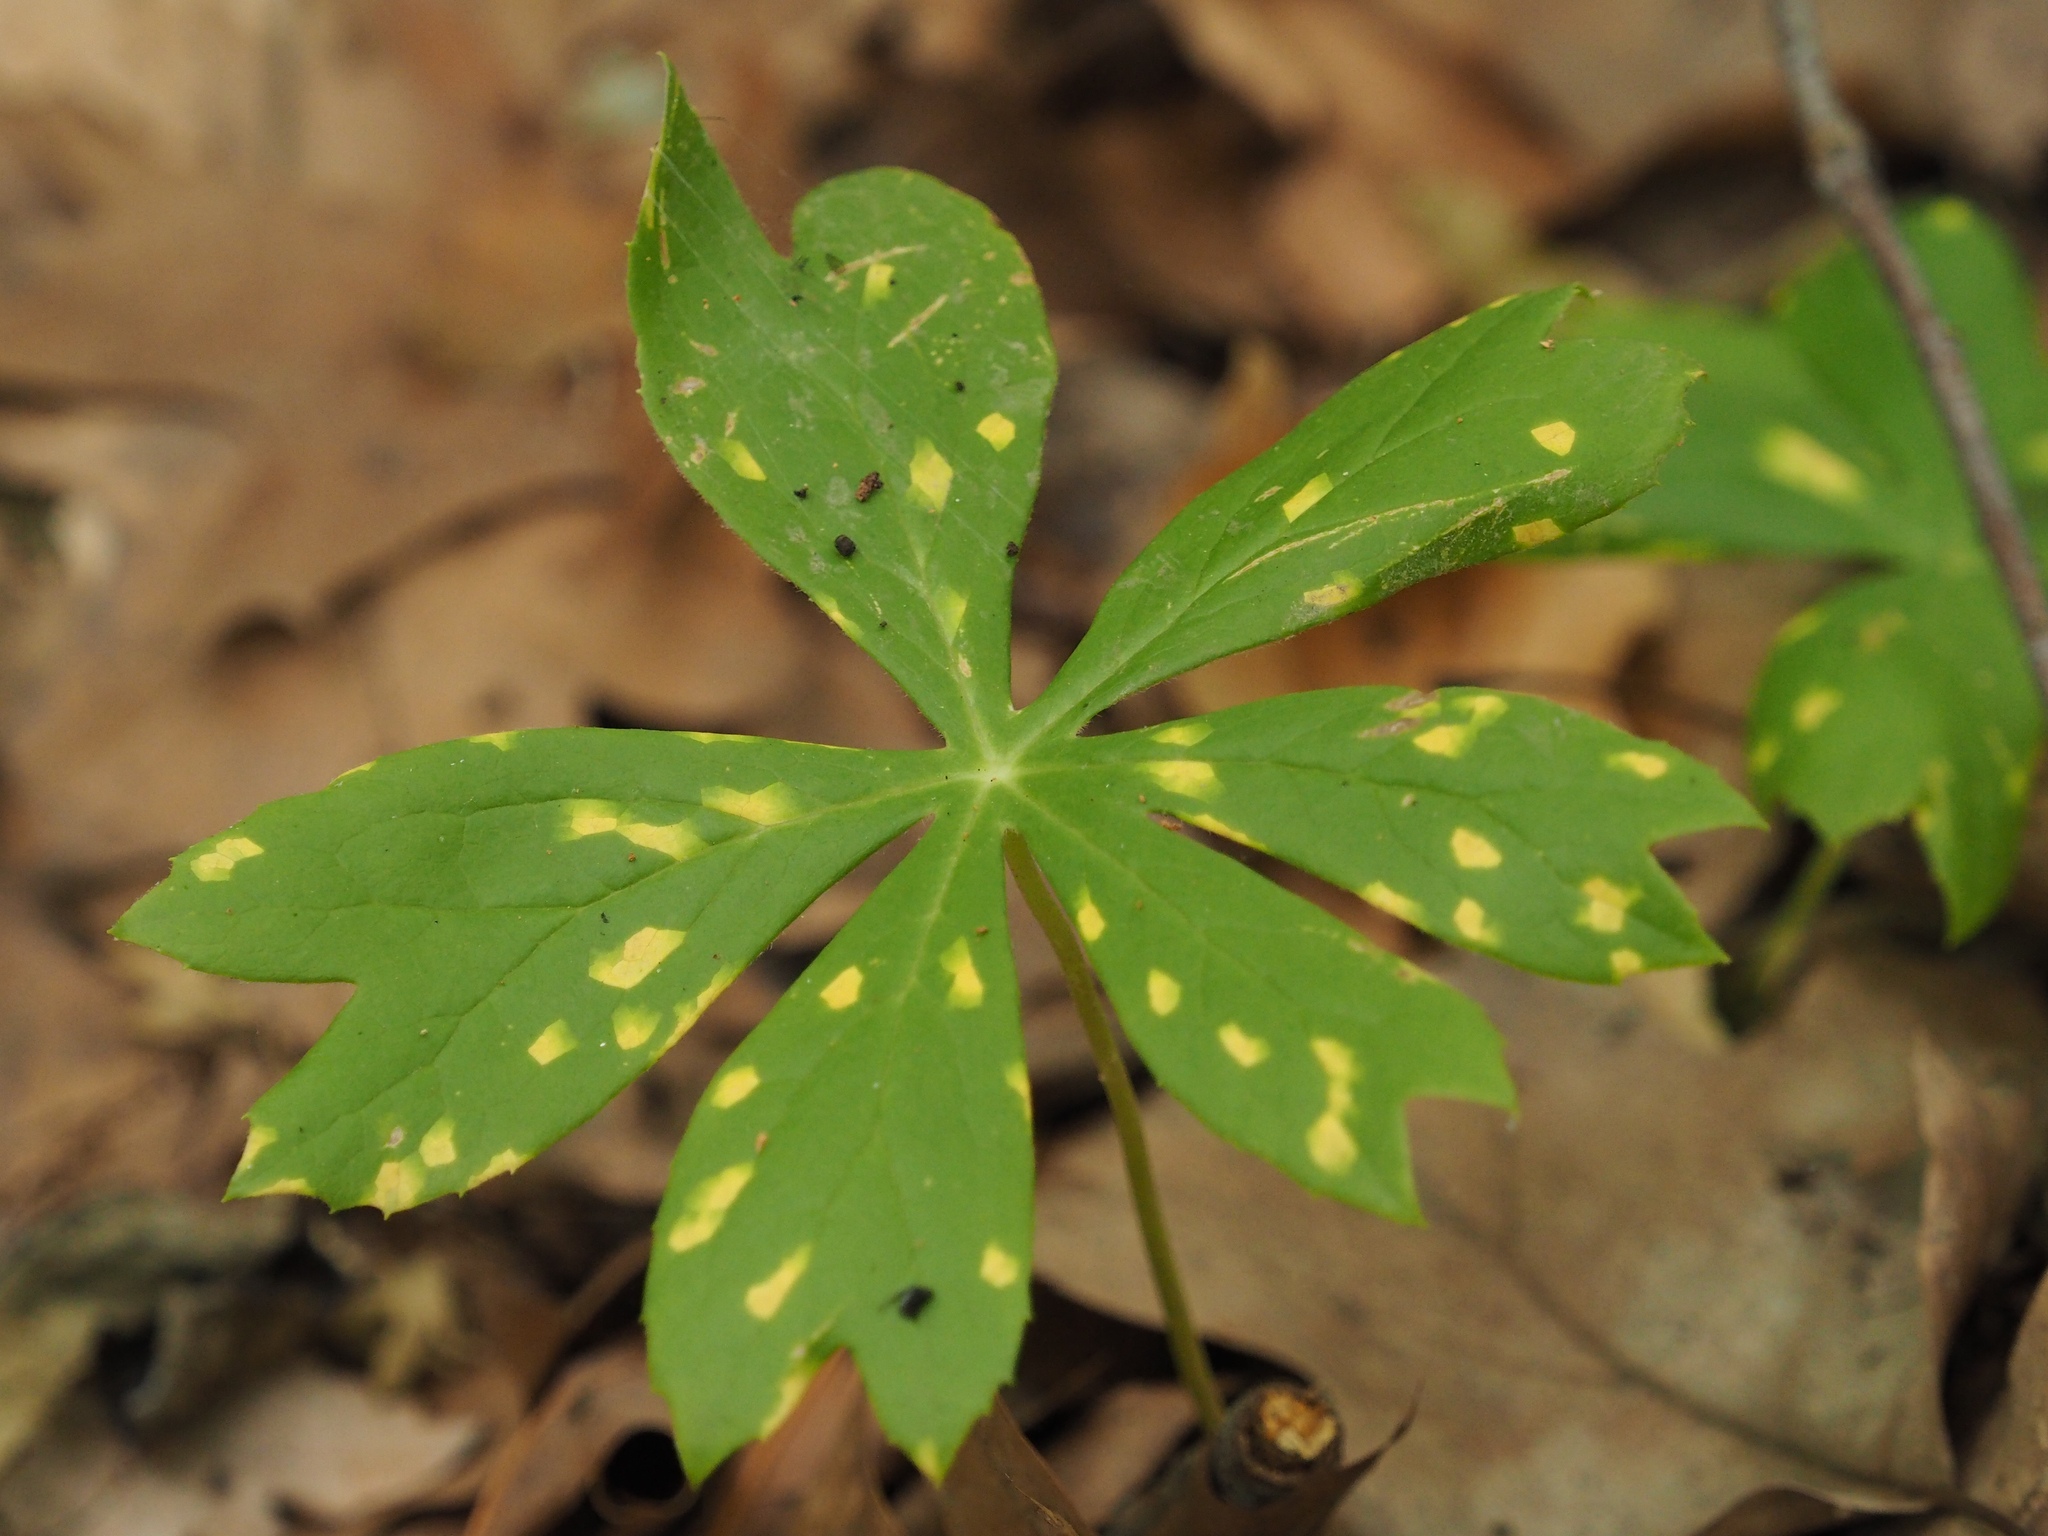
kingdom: Fungi
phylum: Basidiomycota
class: Pucciniomycetes
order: Pucciniales
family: Pucciniaceae
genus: Puccinia
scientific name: Puccinia podophylli
